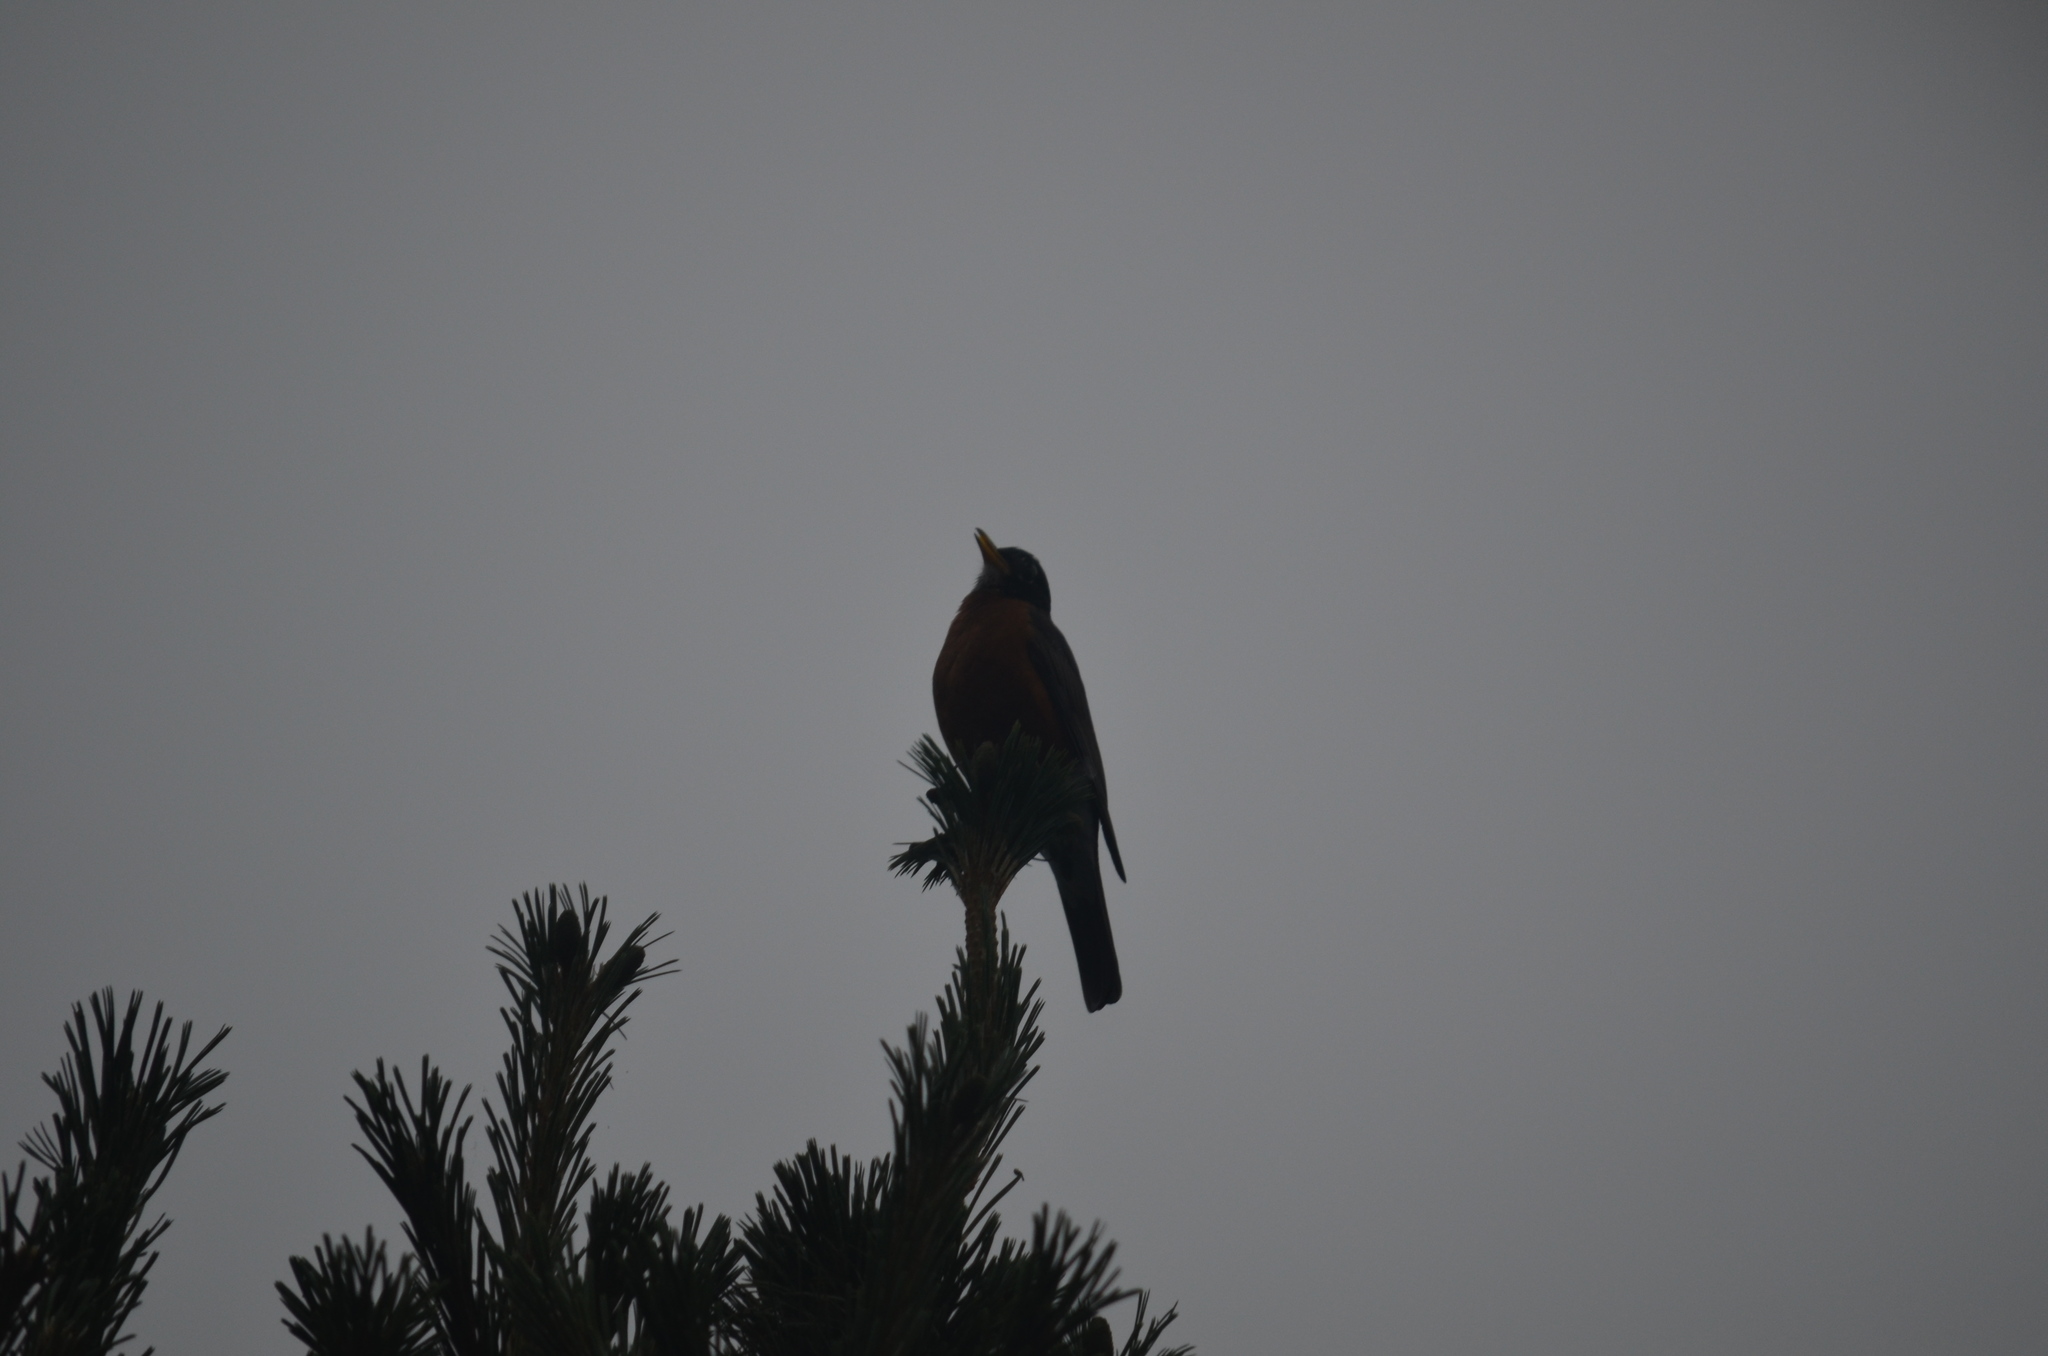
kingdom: Animalia
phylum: Chordata
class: Aves
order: Passeriformes
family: Turdidae
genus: Turdus
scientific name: Turdus migratorius
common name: American robin
